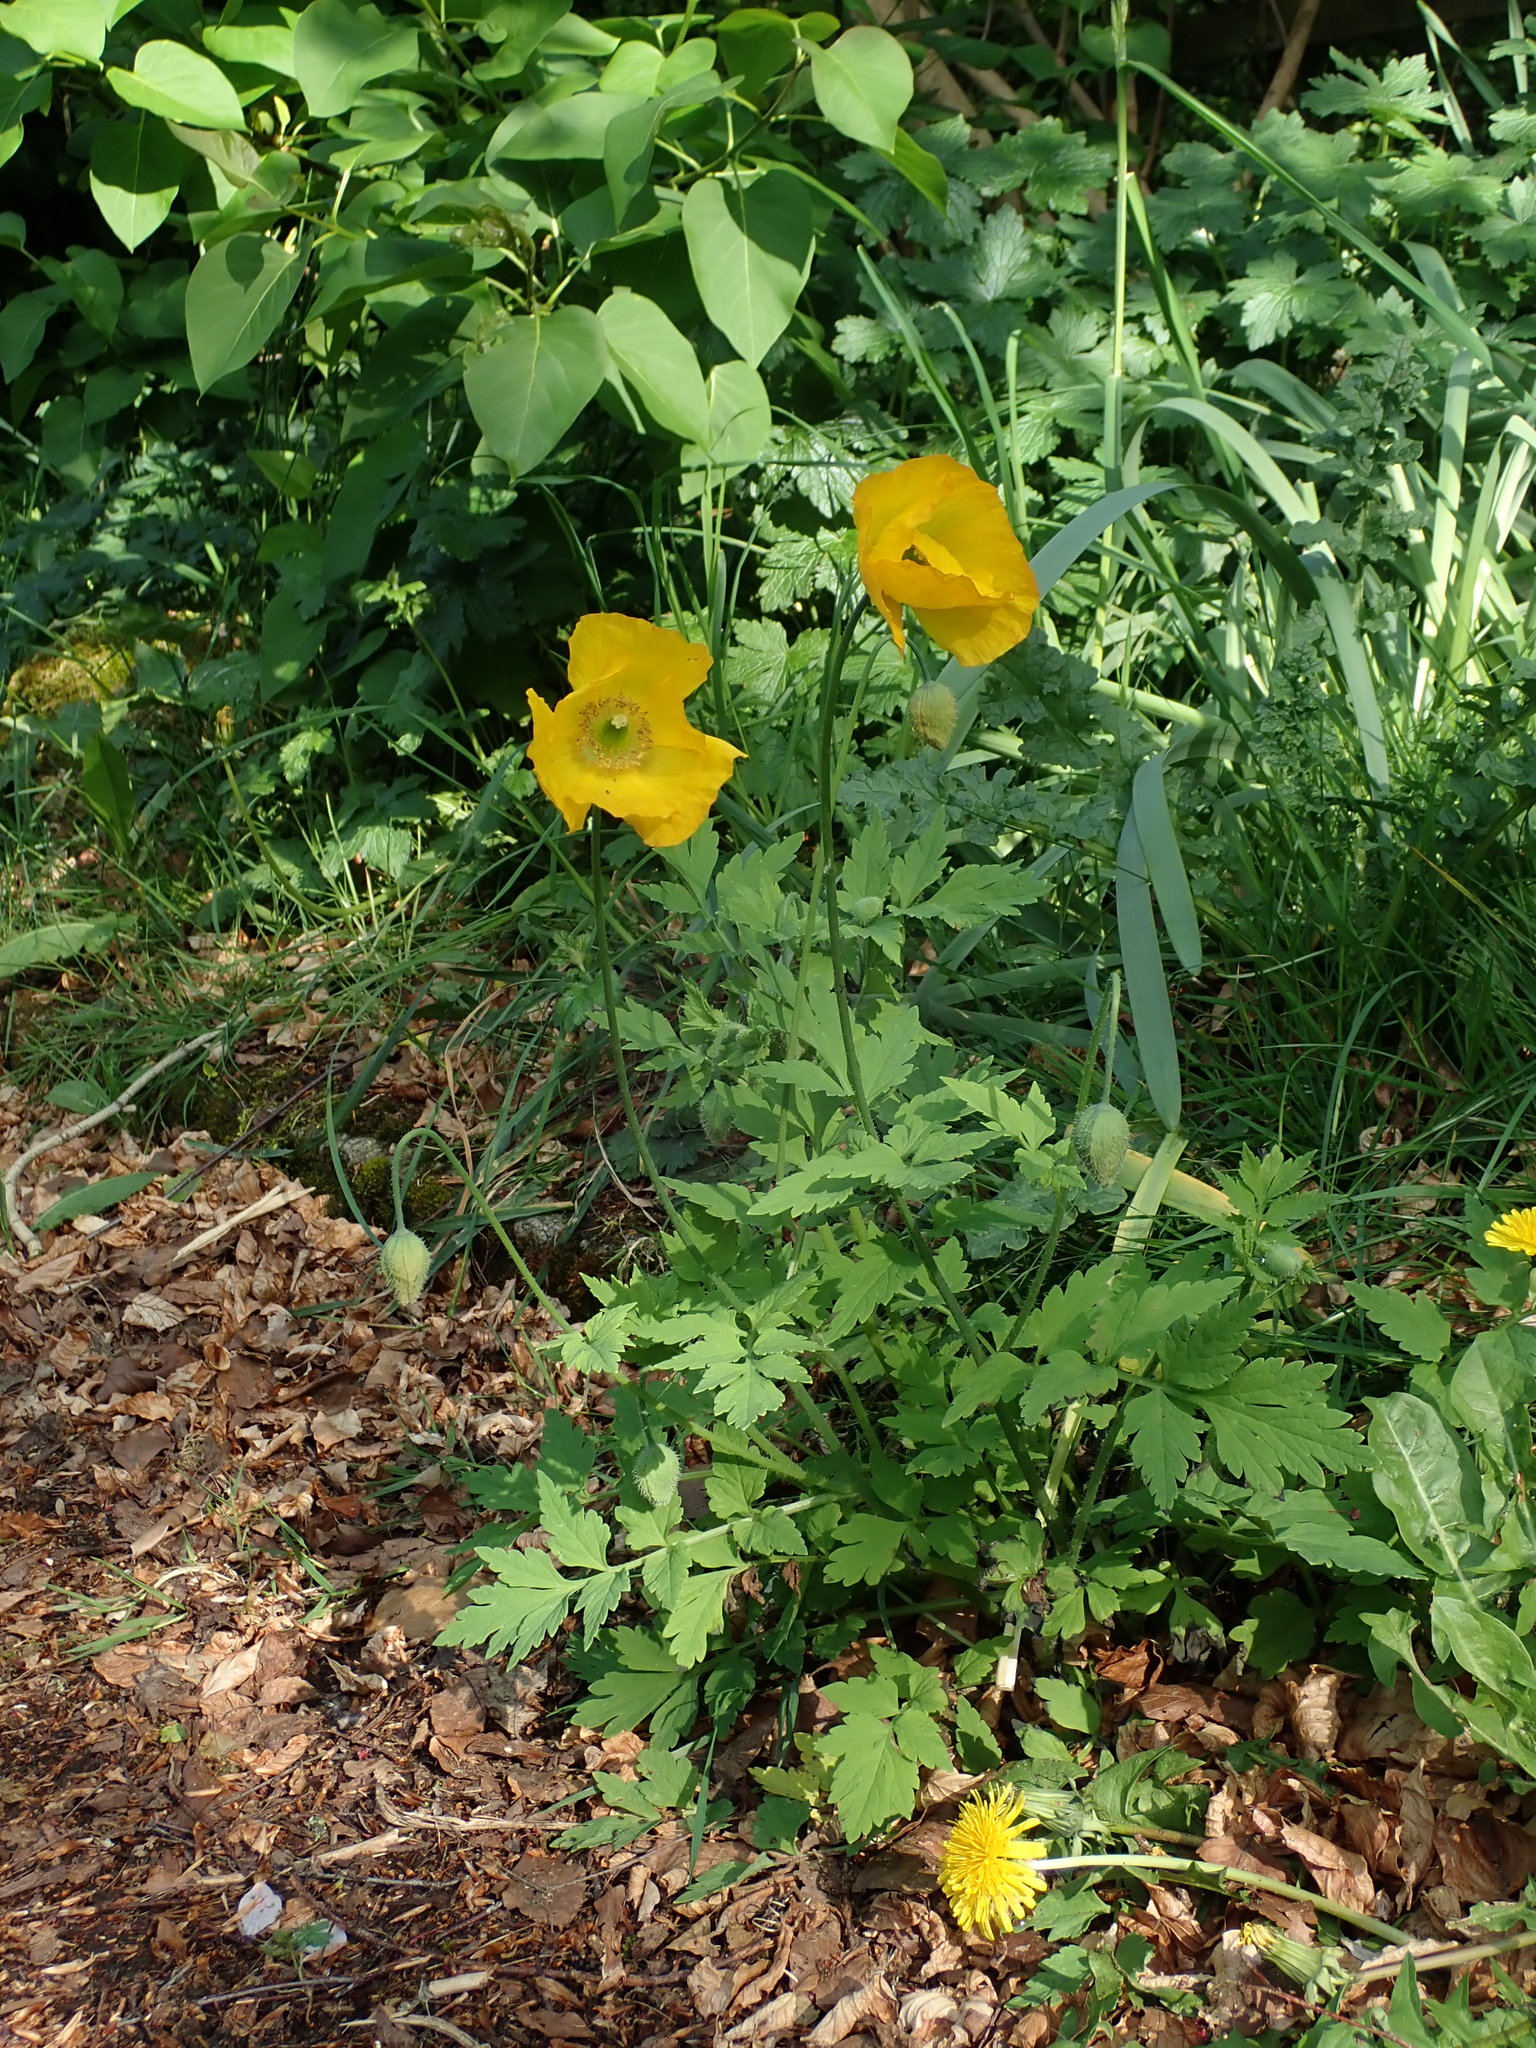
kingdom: Plantae
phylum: Tracheophyta
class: Magnoliopsida
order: Ranunculales
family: Papaveraceae
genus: Papaver
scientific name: Papaver cambricum
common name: Poppy
